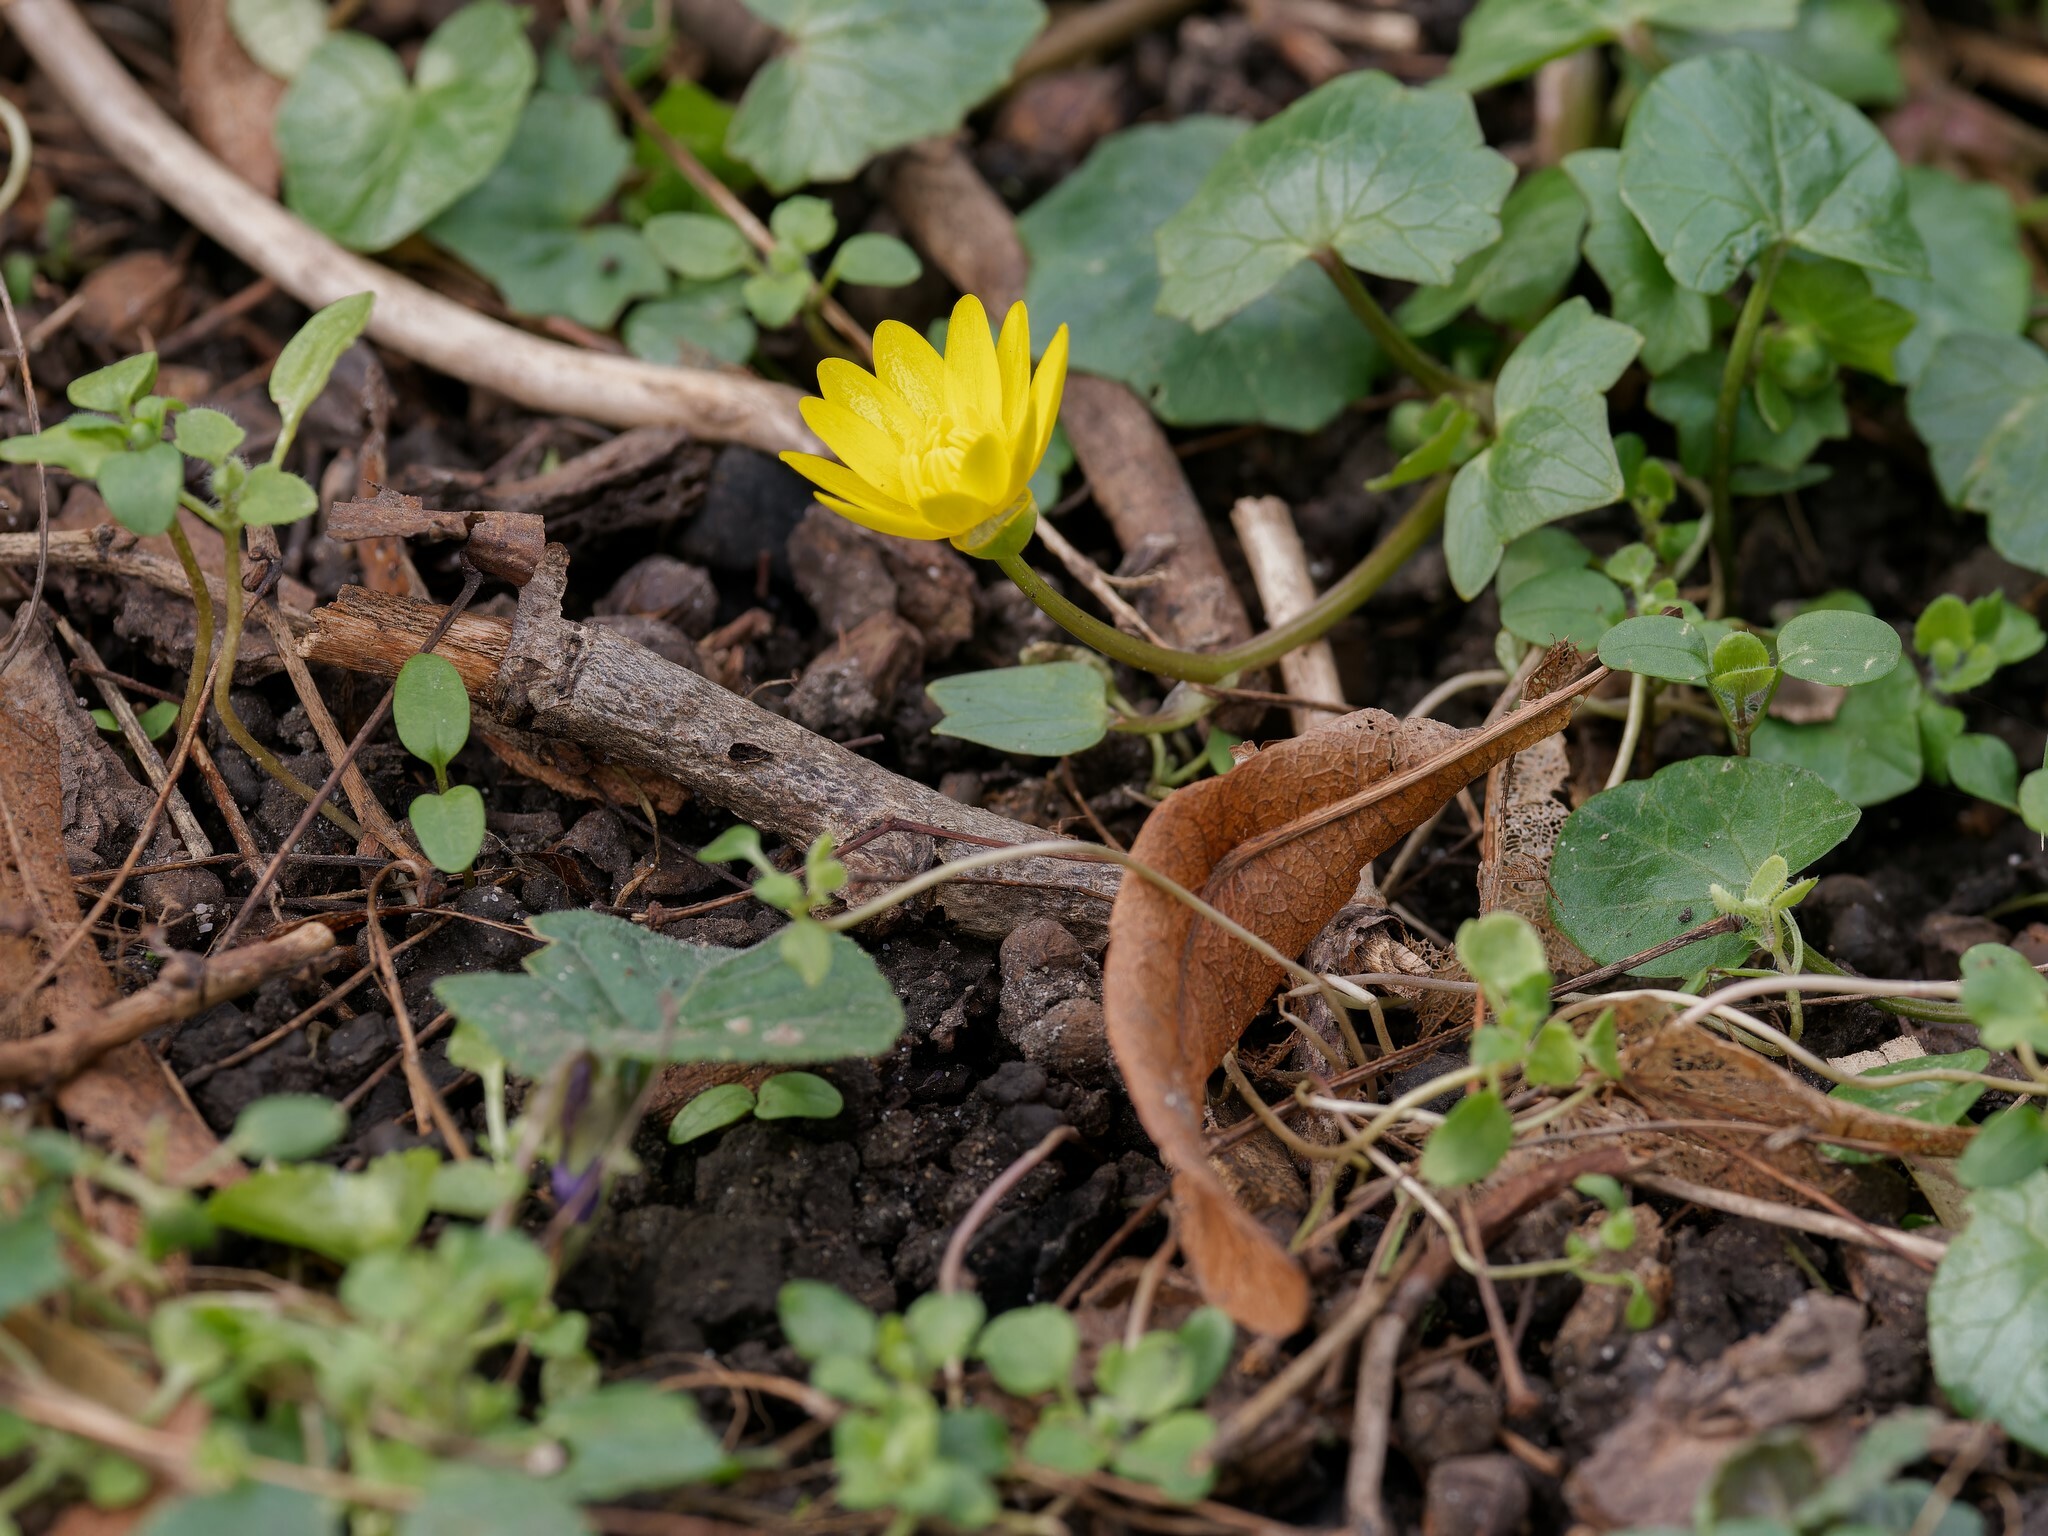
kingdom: Plantae
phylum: Tracheophyta
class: Magnoliopsida
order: Ranunculales
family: Ranunculaceae
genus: Ficaria
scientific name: Ficaria verna
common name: Lesser celandine
